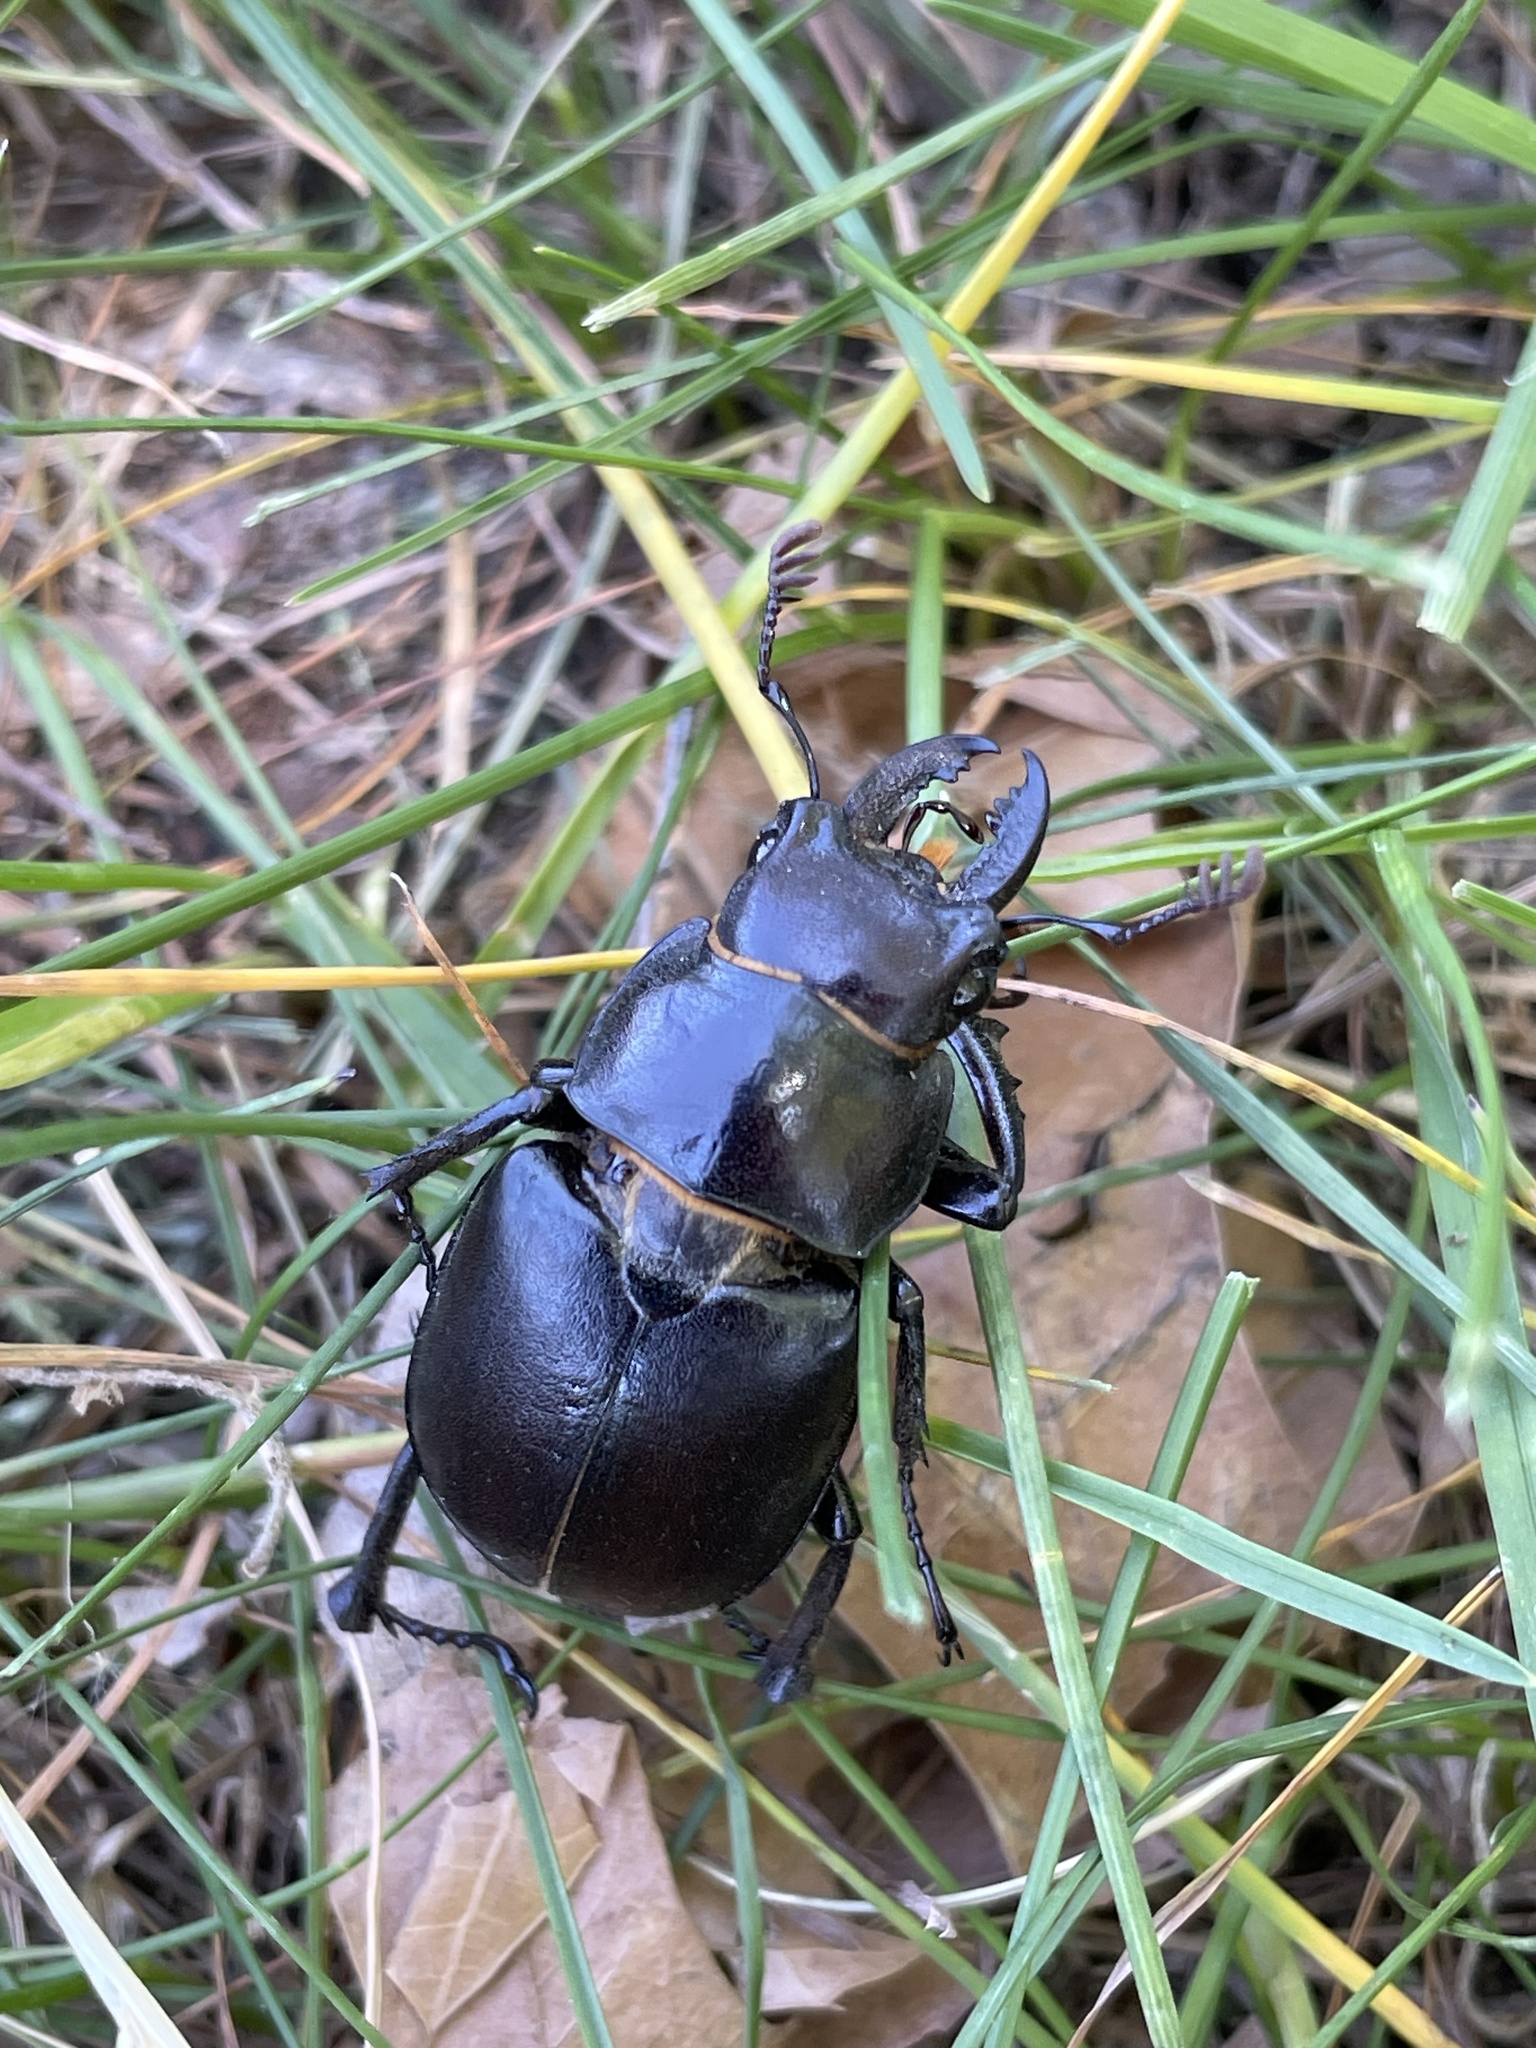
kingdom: Animalia
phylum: Arthropoda
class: Insecta
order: Coleoptera
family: Lucanidae
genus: Lucanus
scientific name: Lucanus placidus
